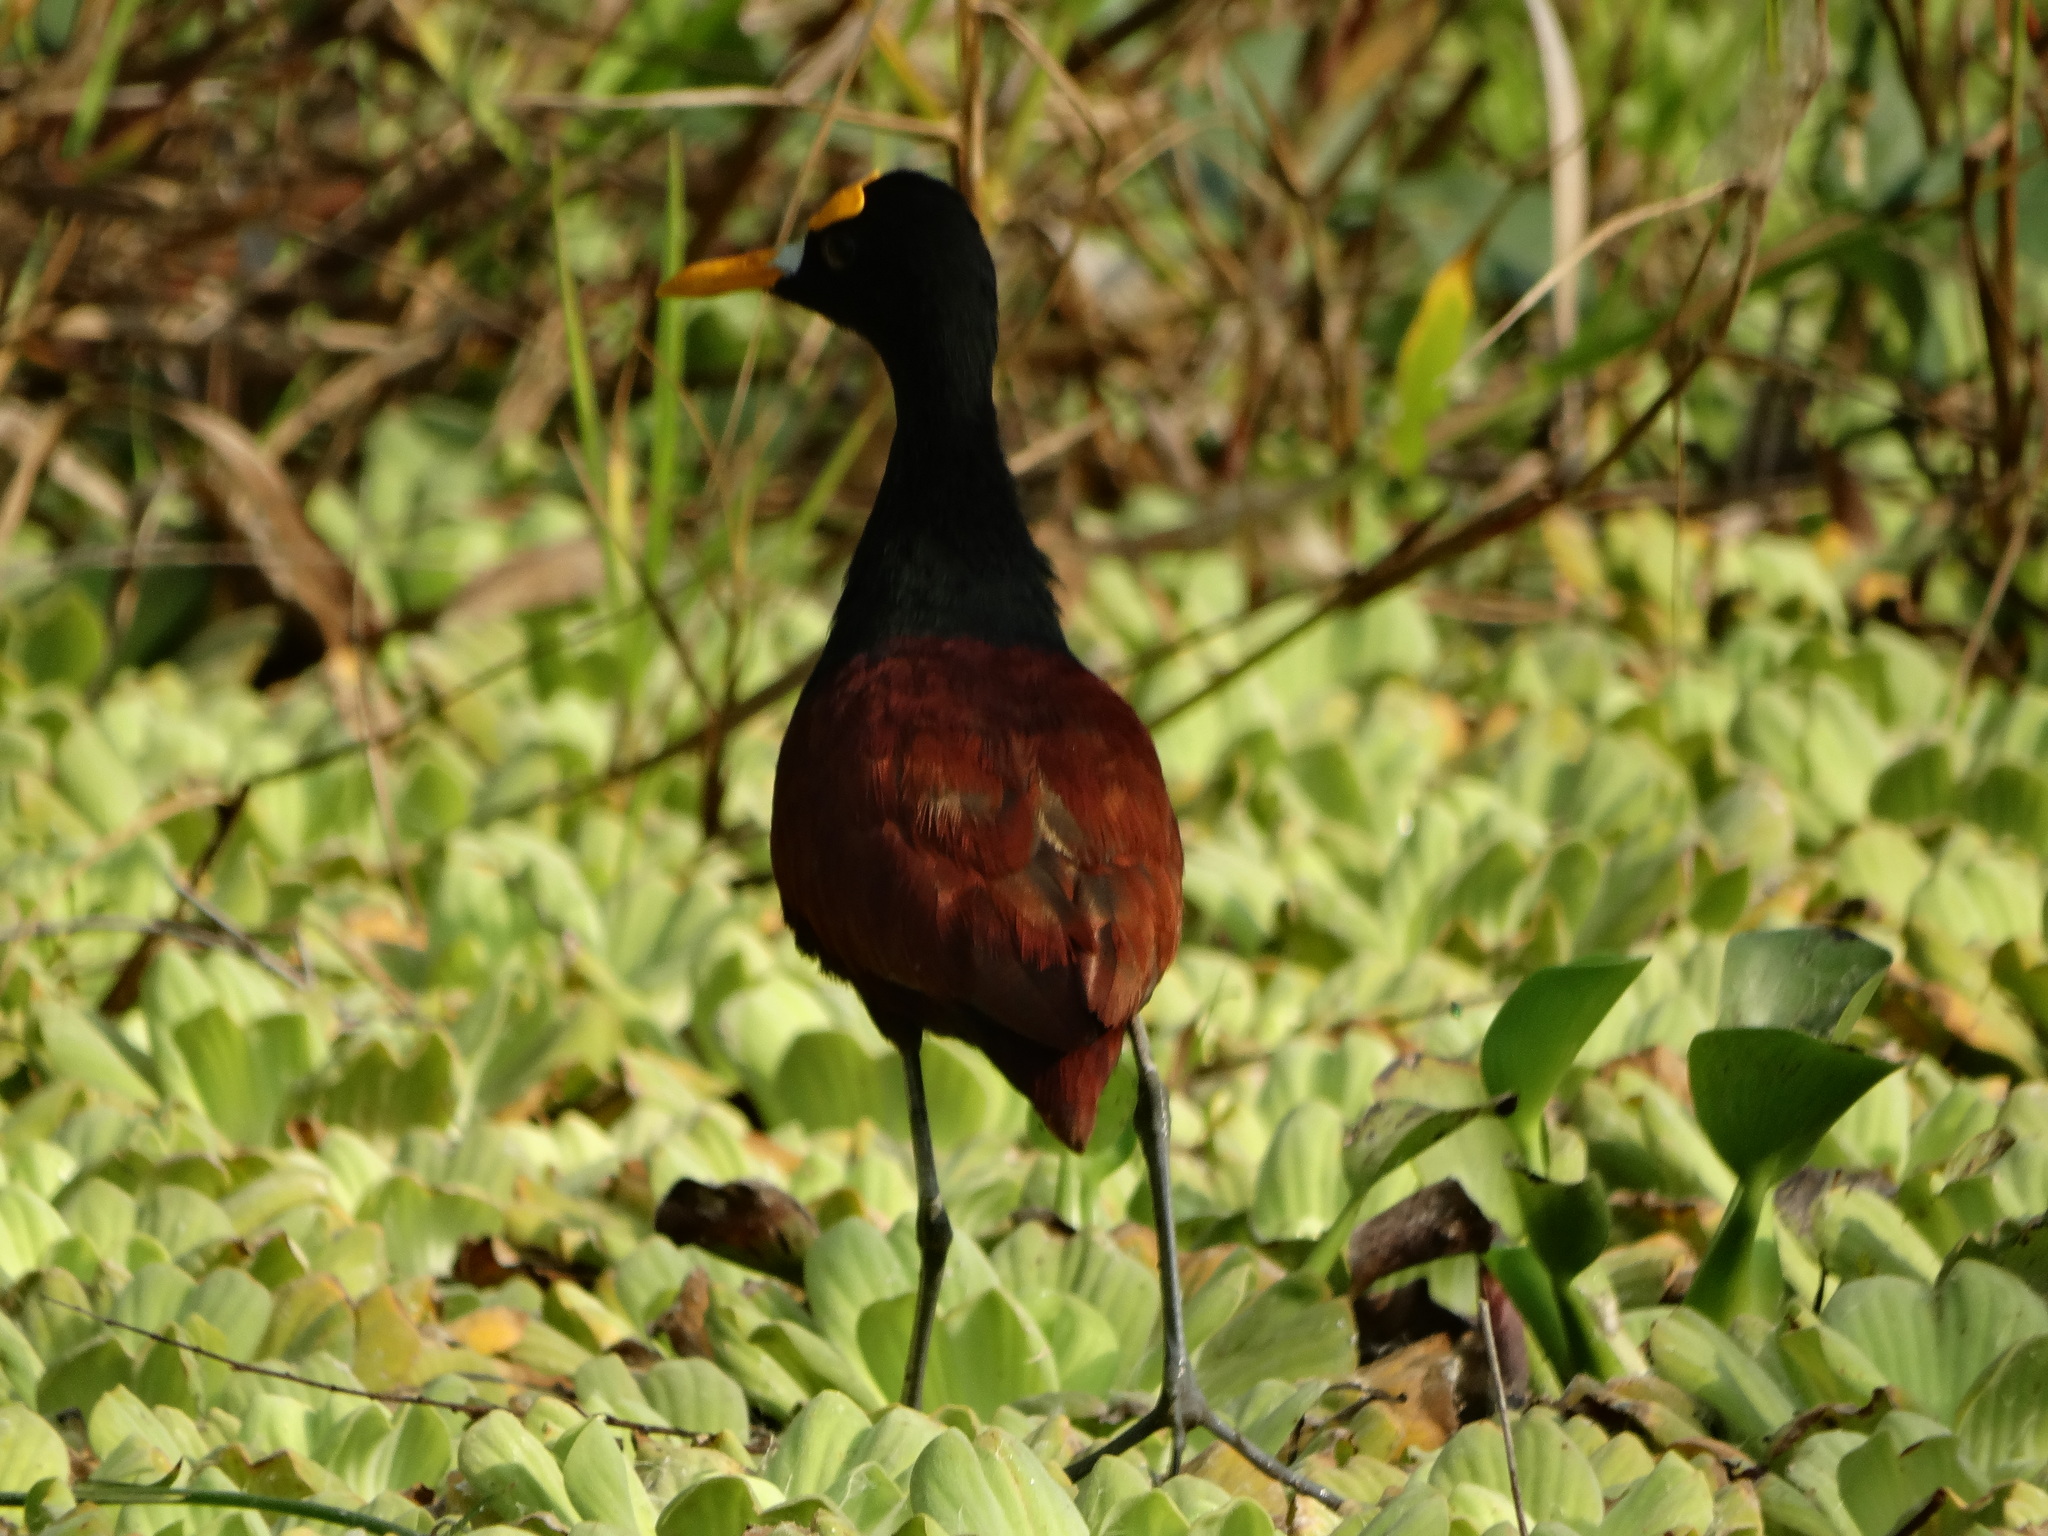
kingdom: Animalia
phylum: Chordata
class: Aves
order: Charadriiformes
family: Jacanidae
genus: Jacana
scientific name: Jacana spinosa
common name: Northern jacana
